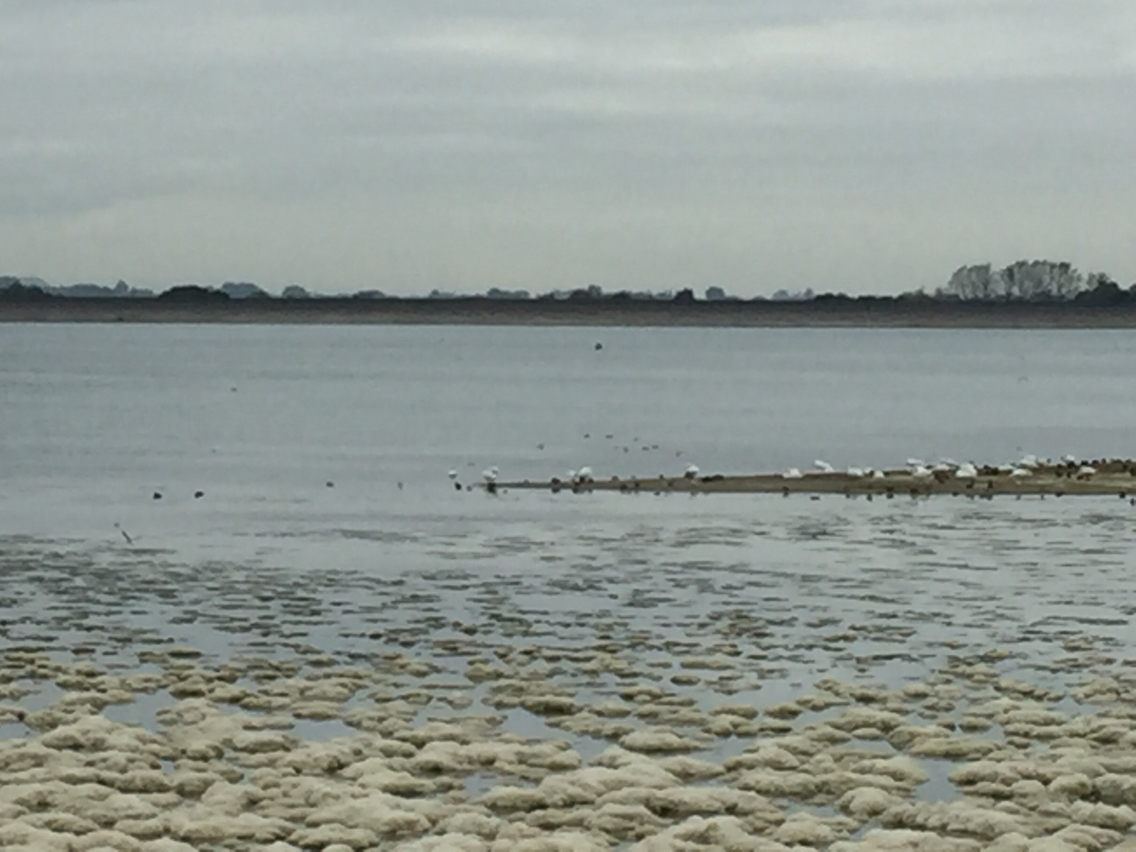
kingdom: Animalia
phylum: Chordata
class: Aves
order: Anseriformes
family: Anatidae
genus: Cygnus
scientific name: Cygnus
